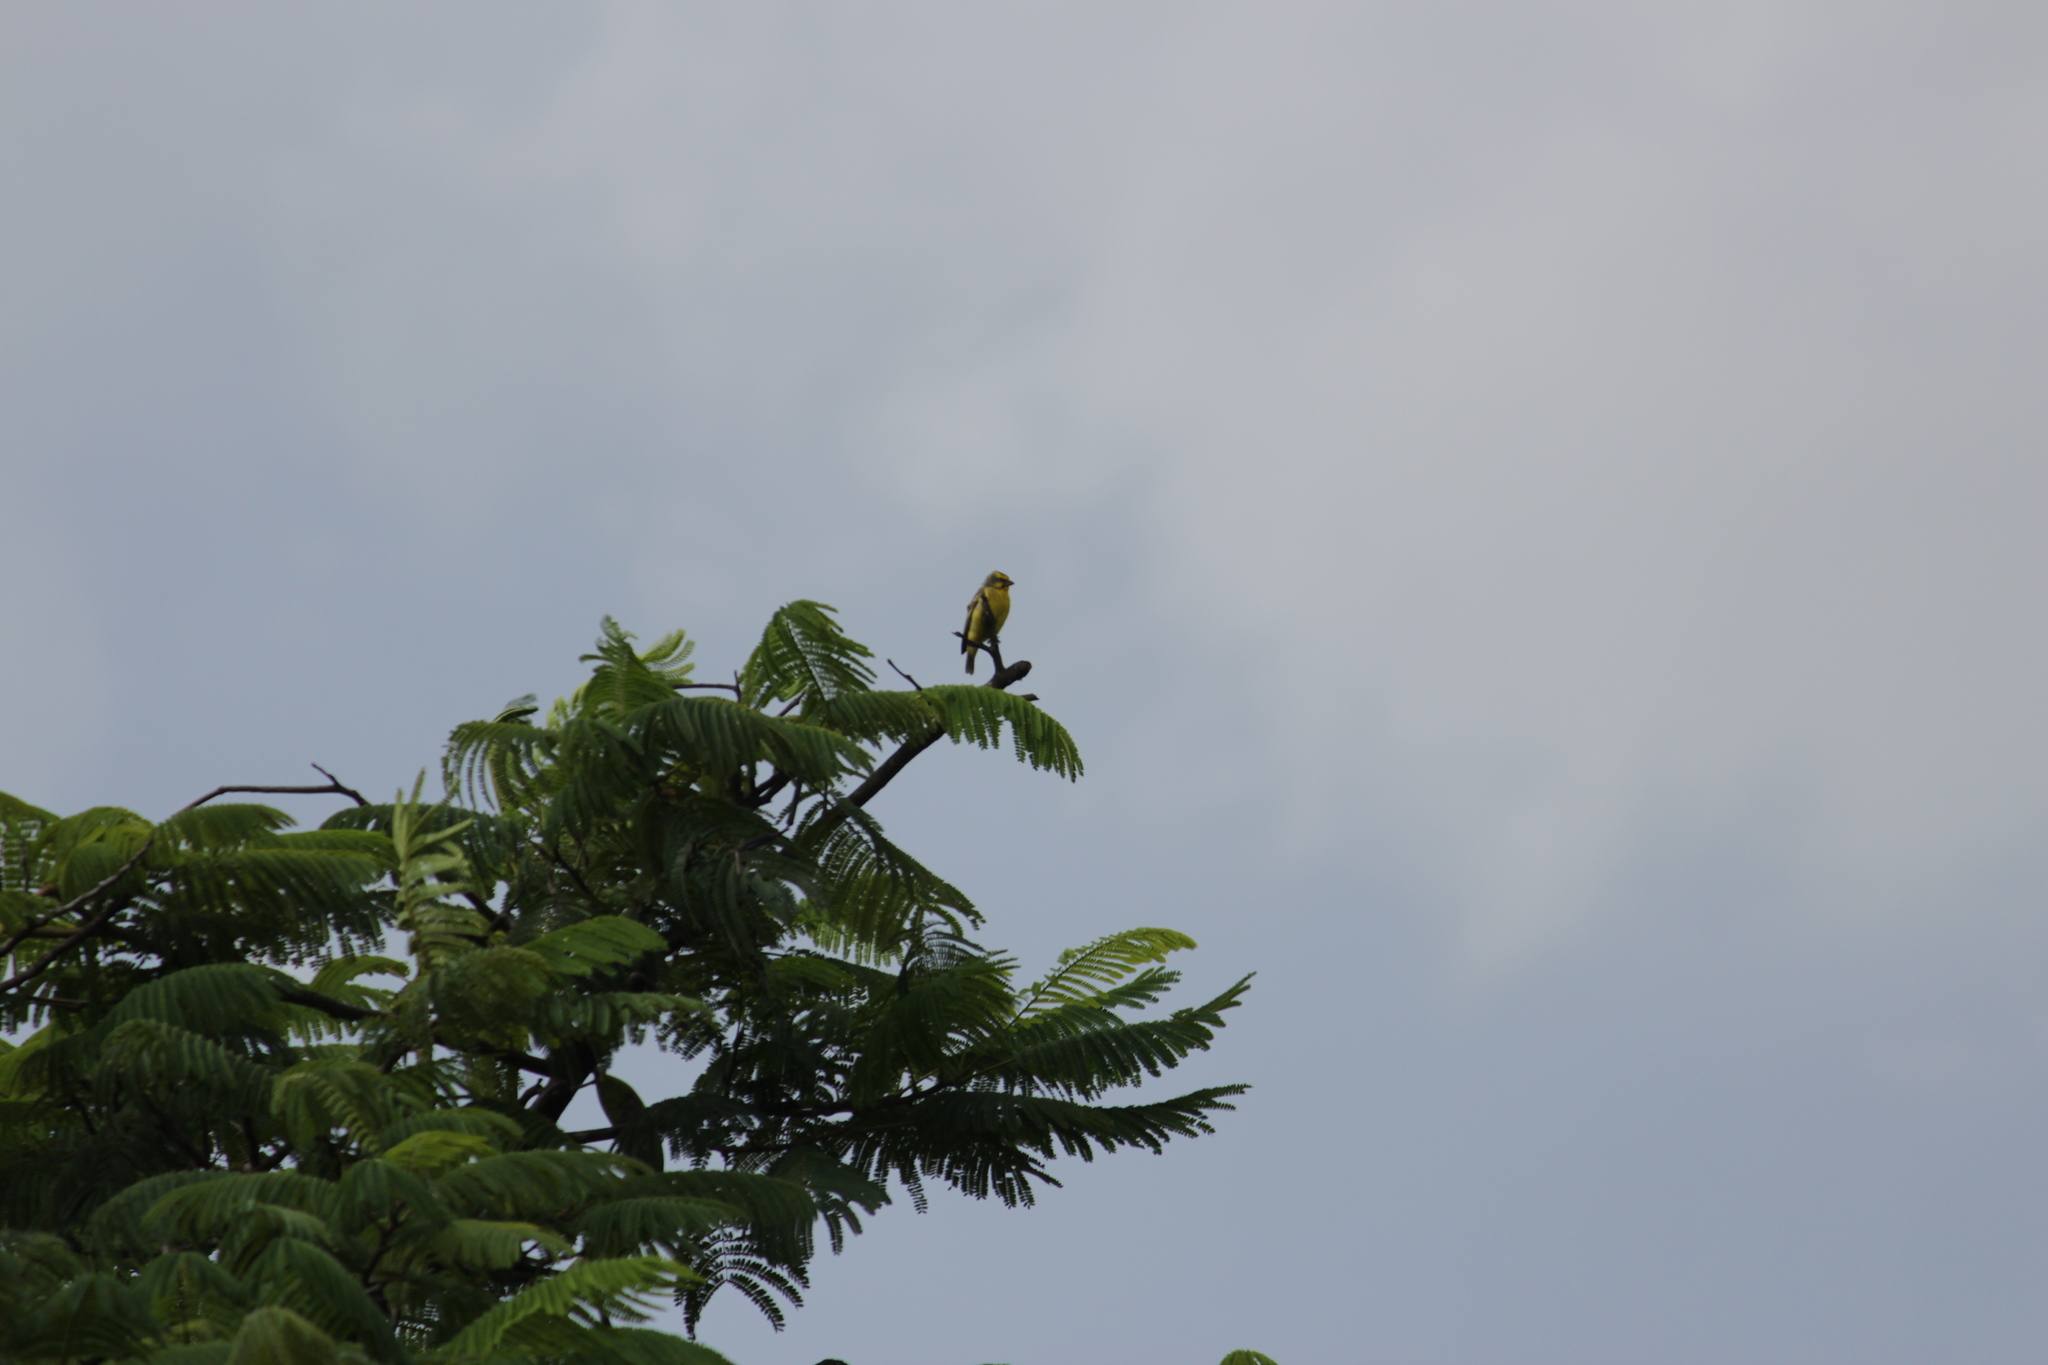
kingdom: Animalia
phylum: Chordata
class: Aves
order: Passeriformes
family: Fringillidae
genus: Crithagra
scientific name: Crithagra mozambica
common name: Yellow-fronted canary
